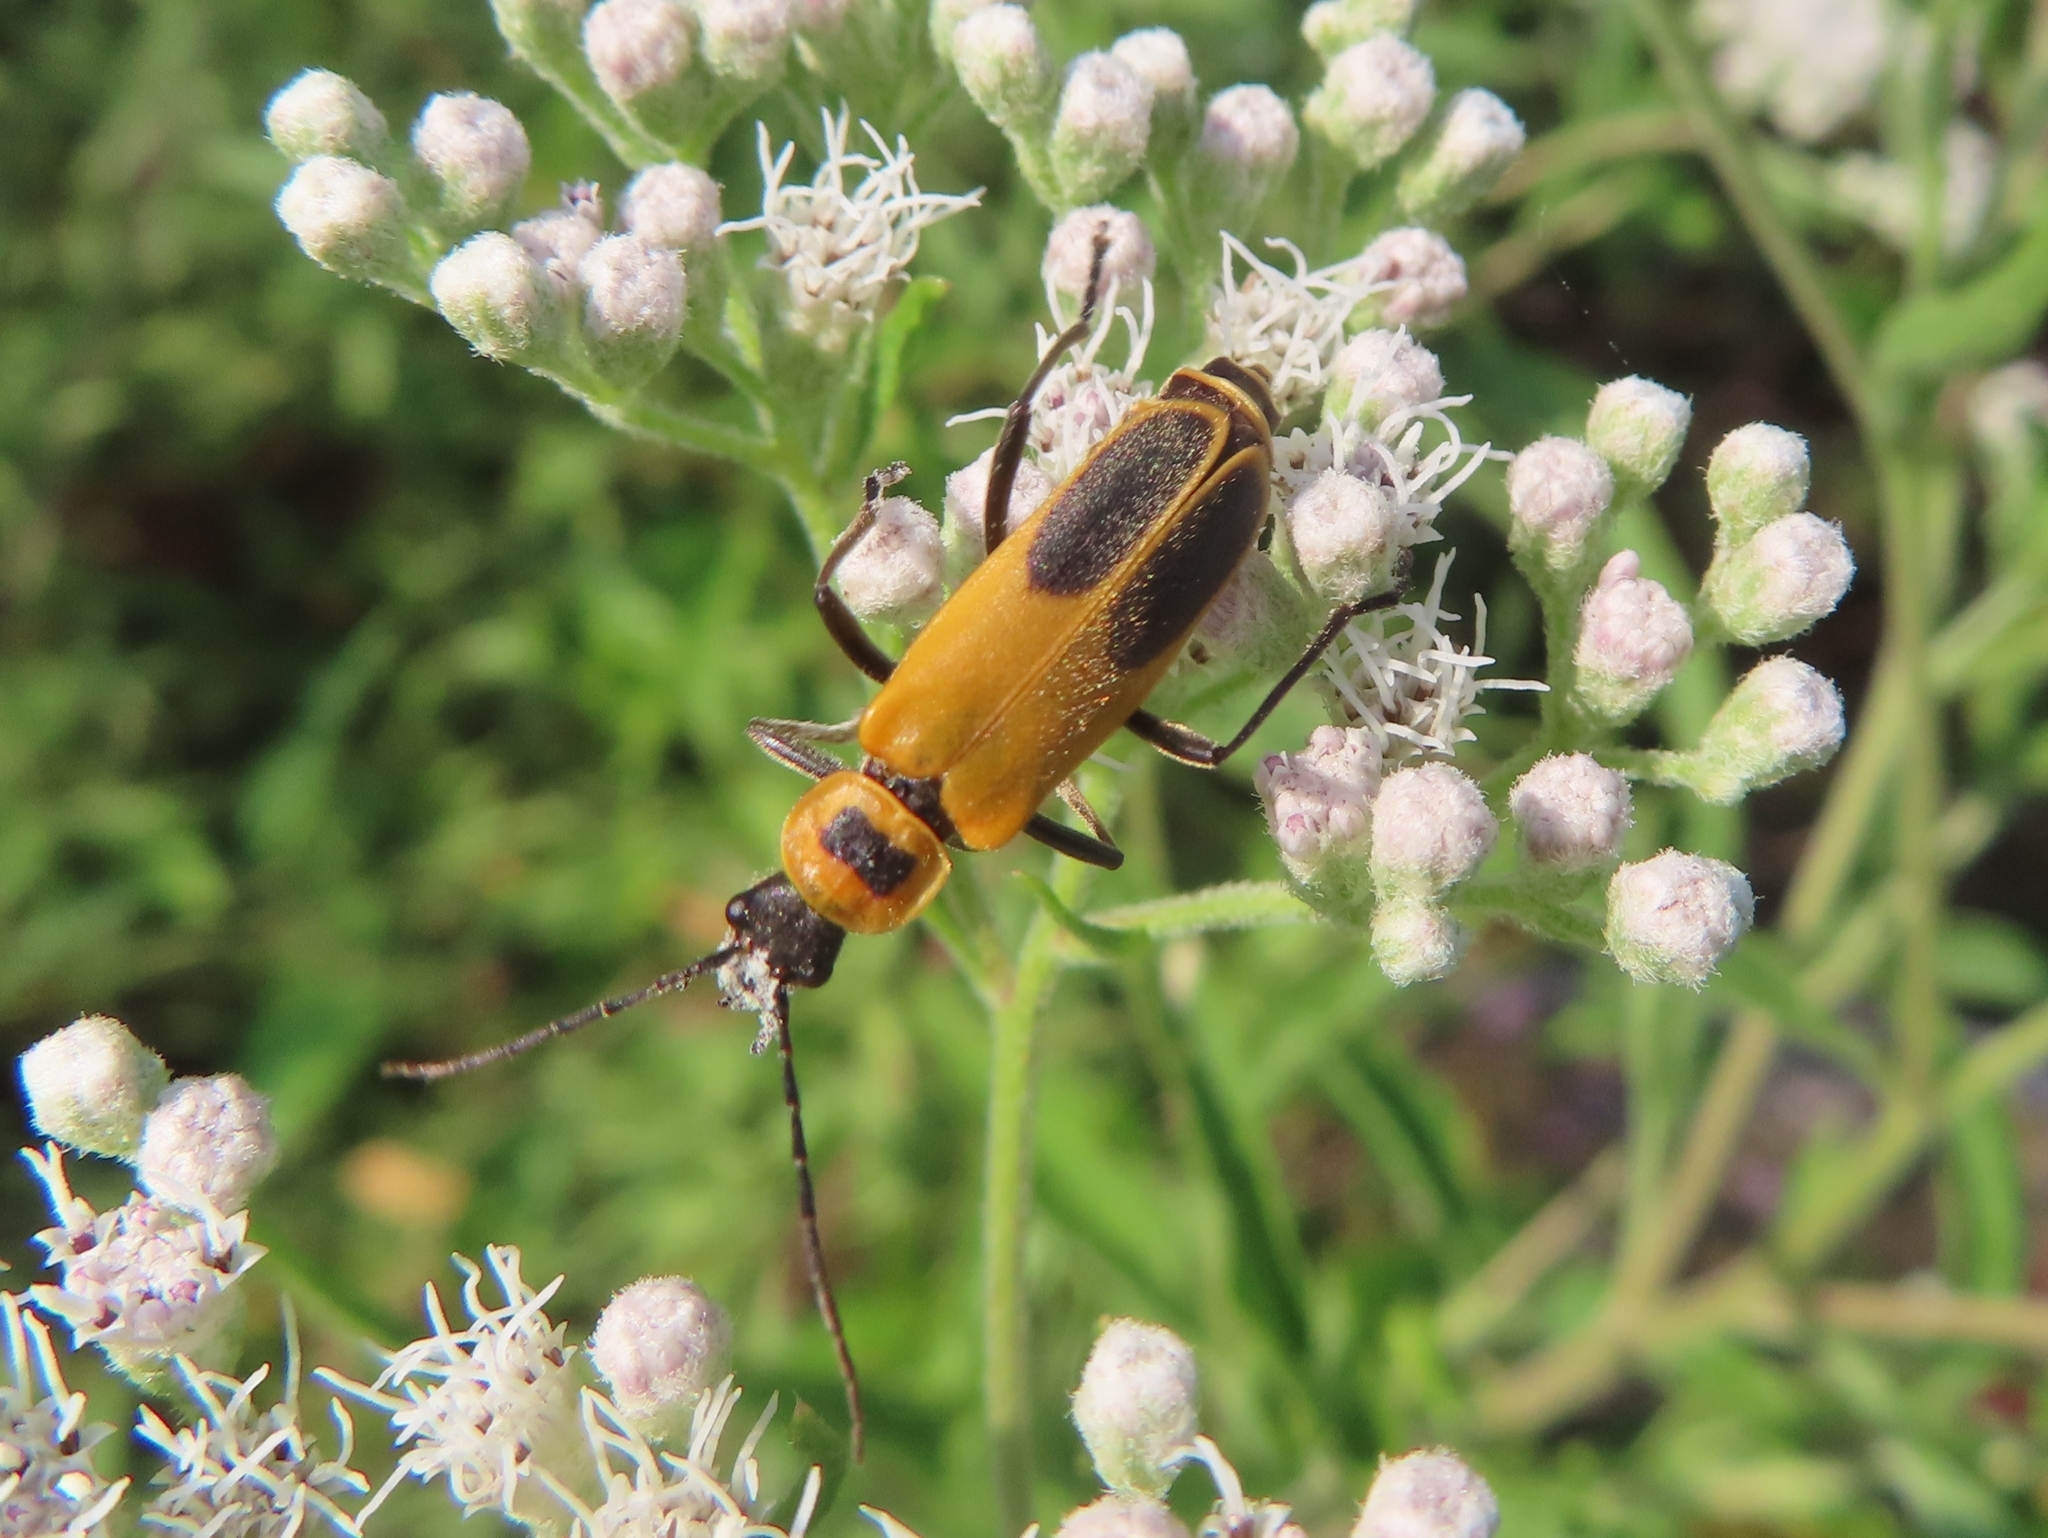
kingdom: Animalia
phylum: Arthropoda
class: Insecta
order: Coleoptera
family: Cantharidae
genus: Chauliognathus
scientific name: Chauliognathus pensylvanicus
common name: Goldenrod soldier beetle
